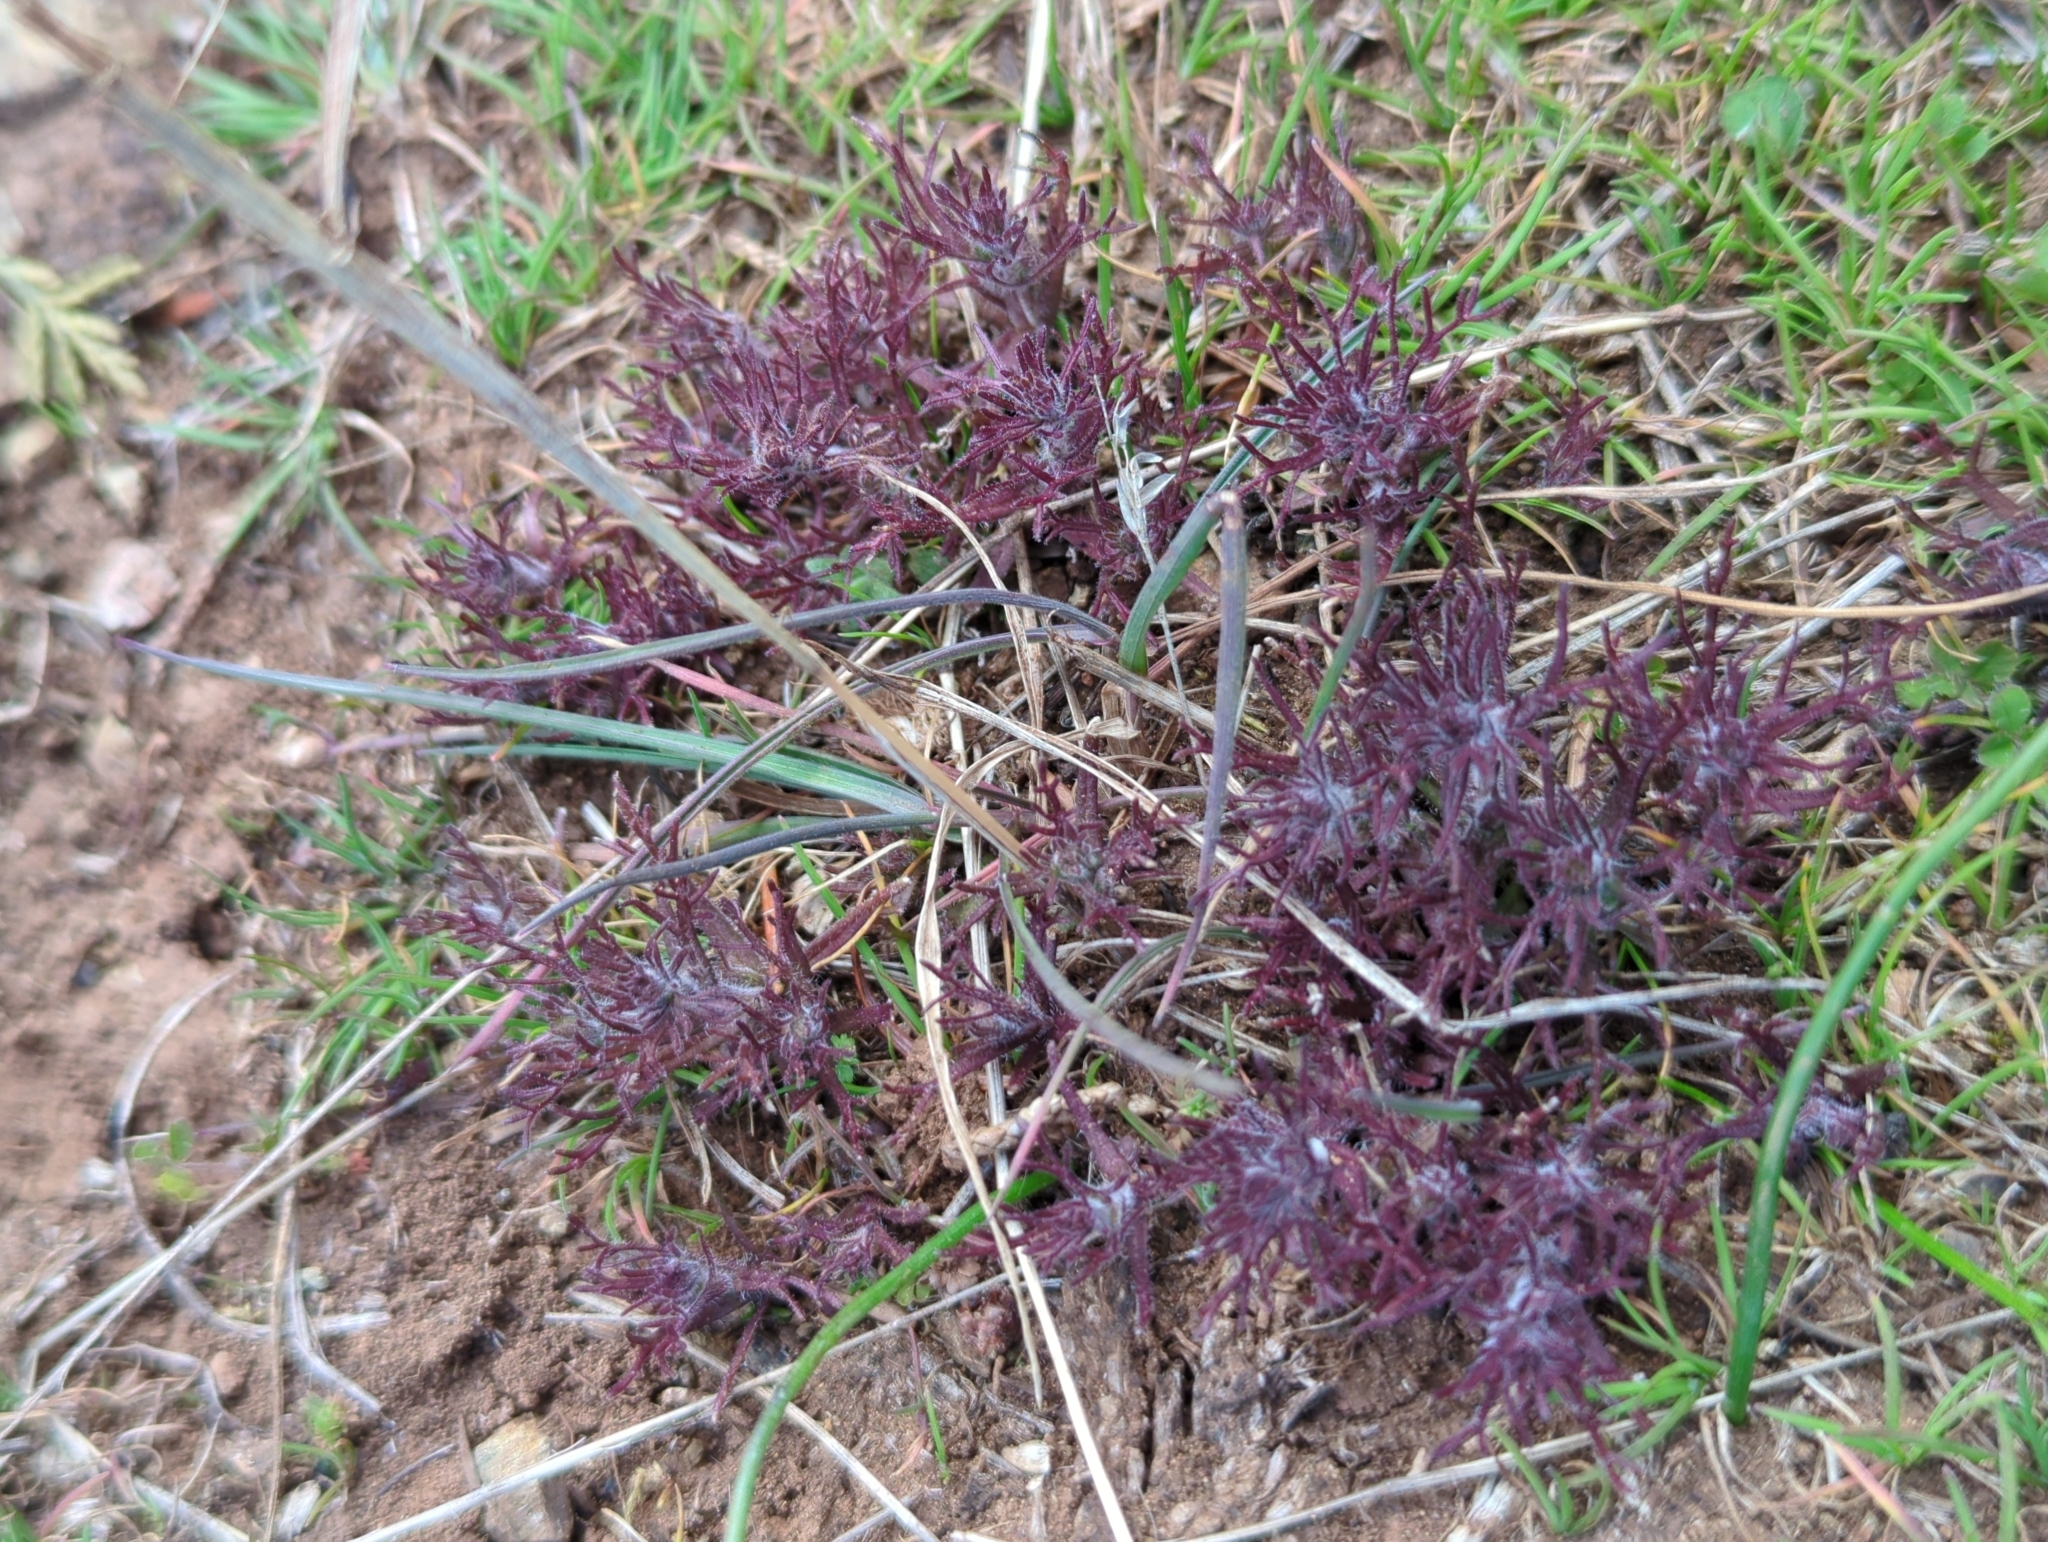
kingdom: Plantae
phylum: Tracheophyta
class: Magnoliopsida
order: Lamiales
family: Orobanchaceae
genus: Triphysaria
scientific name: Triphysaria pusilla
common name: Dwarf false owl-clover
